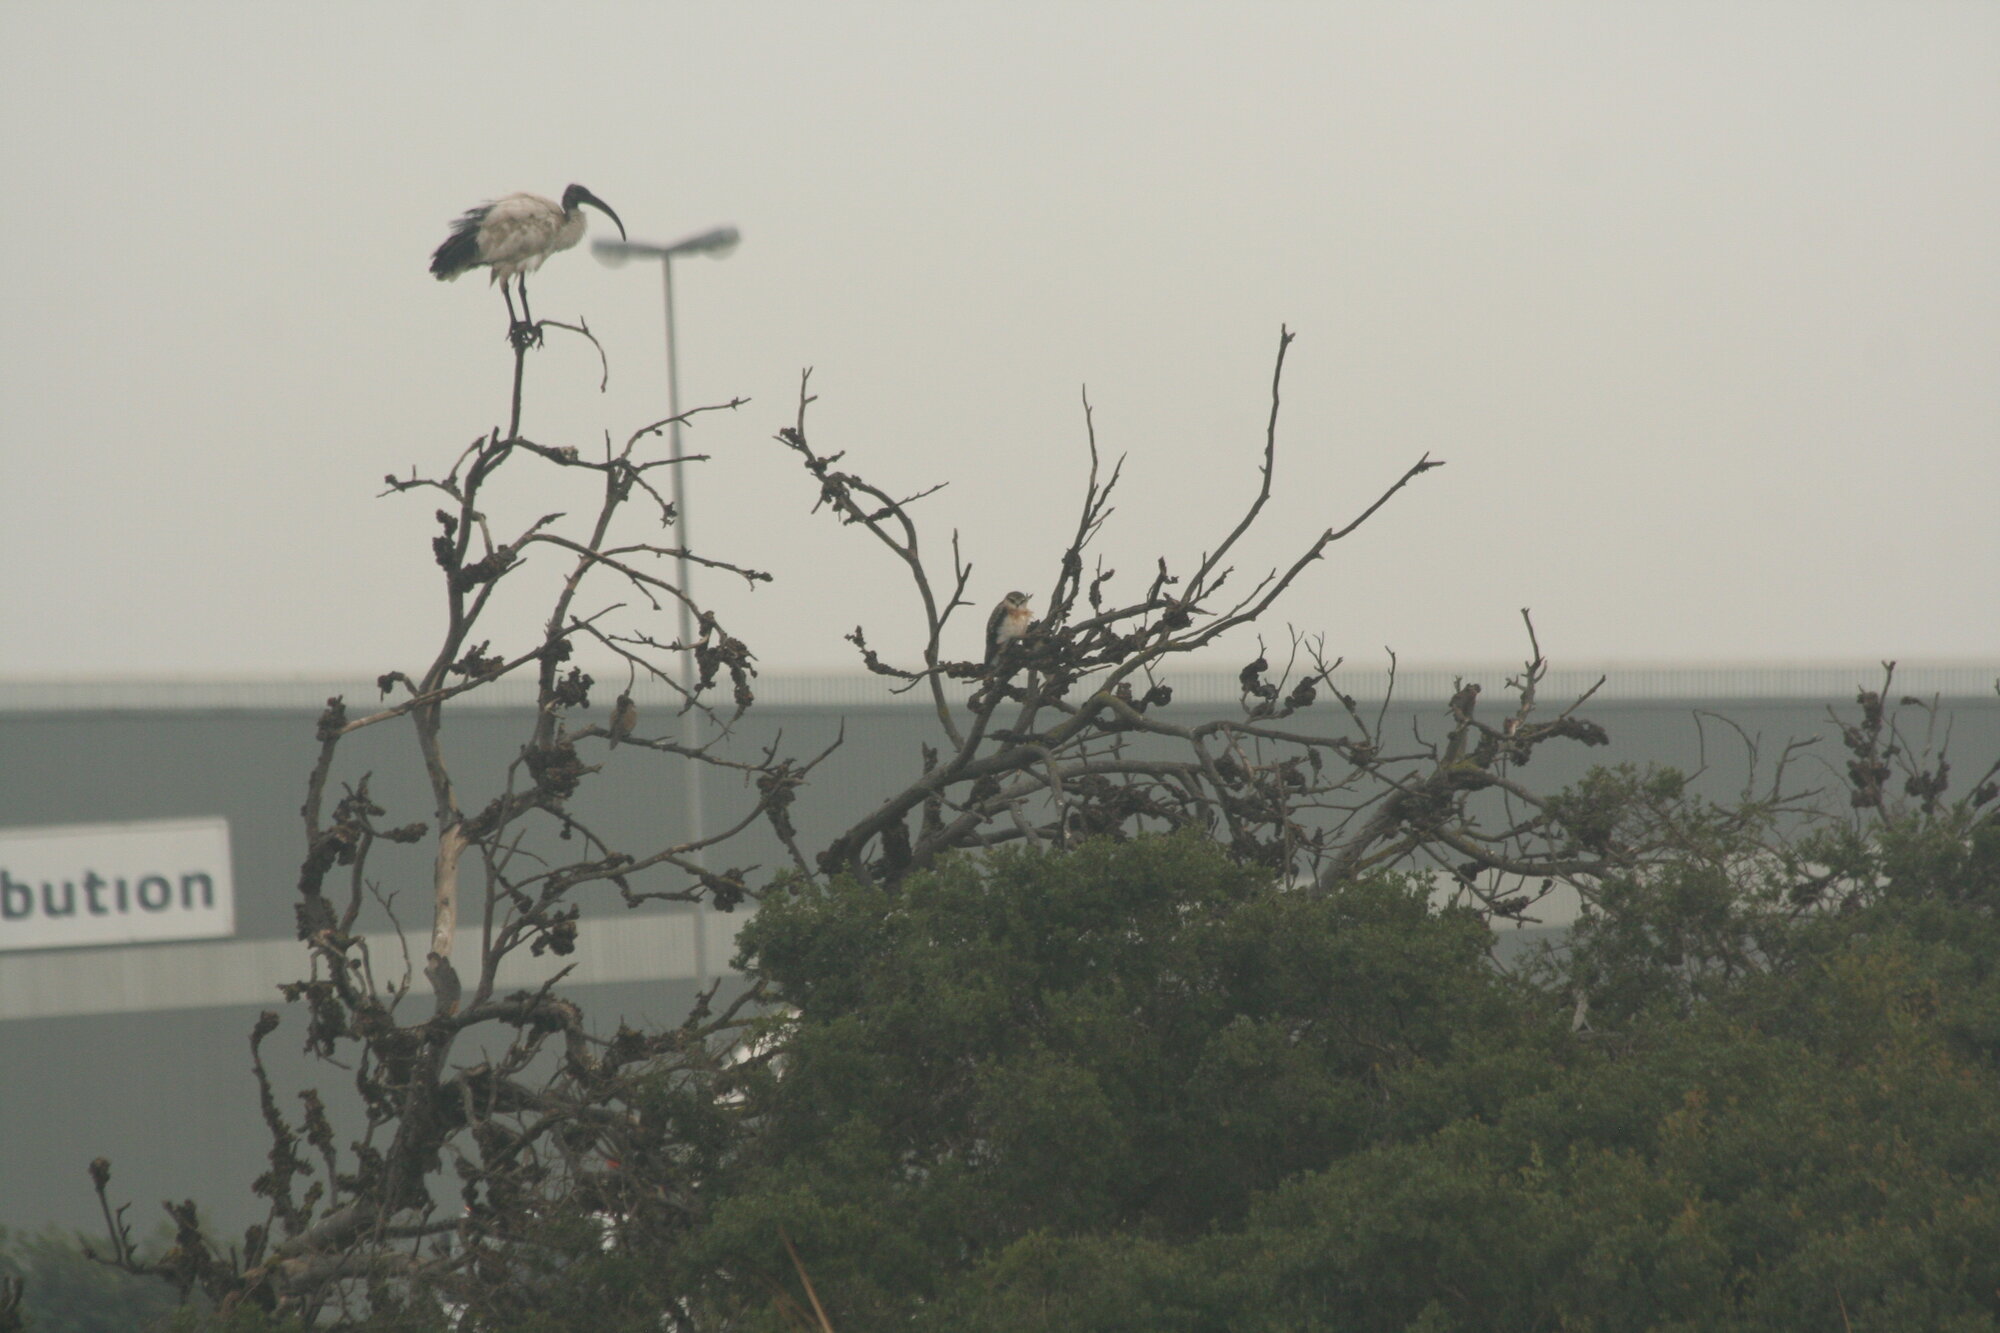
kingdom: Animalia
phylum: Chordata
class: Aves
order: Pelecaniformes
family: Threskiornithidae
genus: Threskiornis
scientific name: Threskiornis aethiopicus
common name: Sacred ibis
